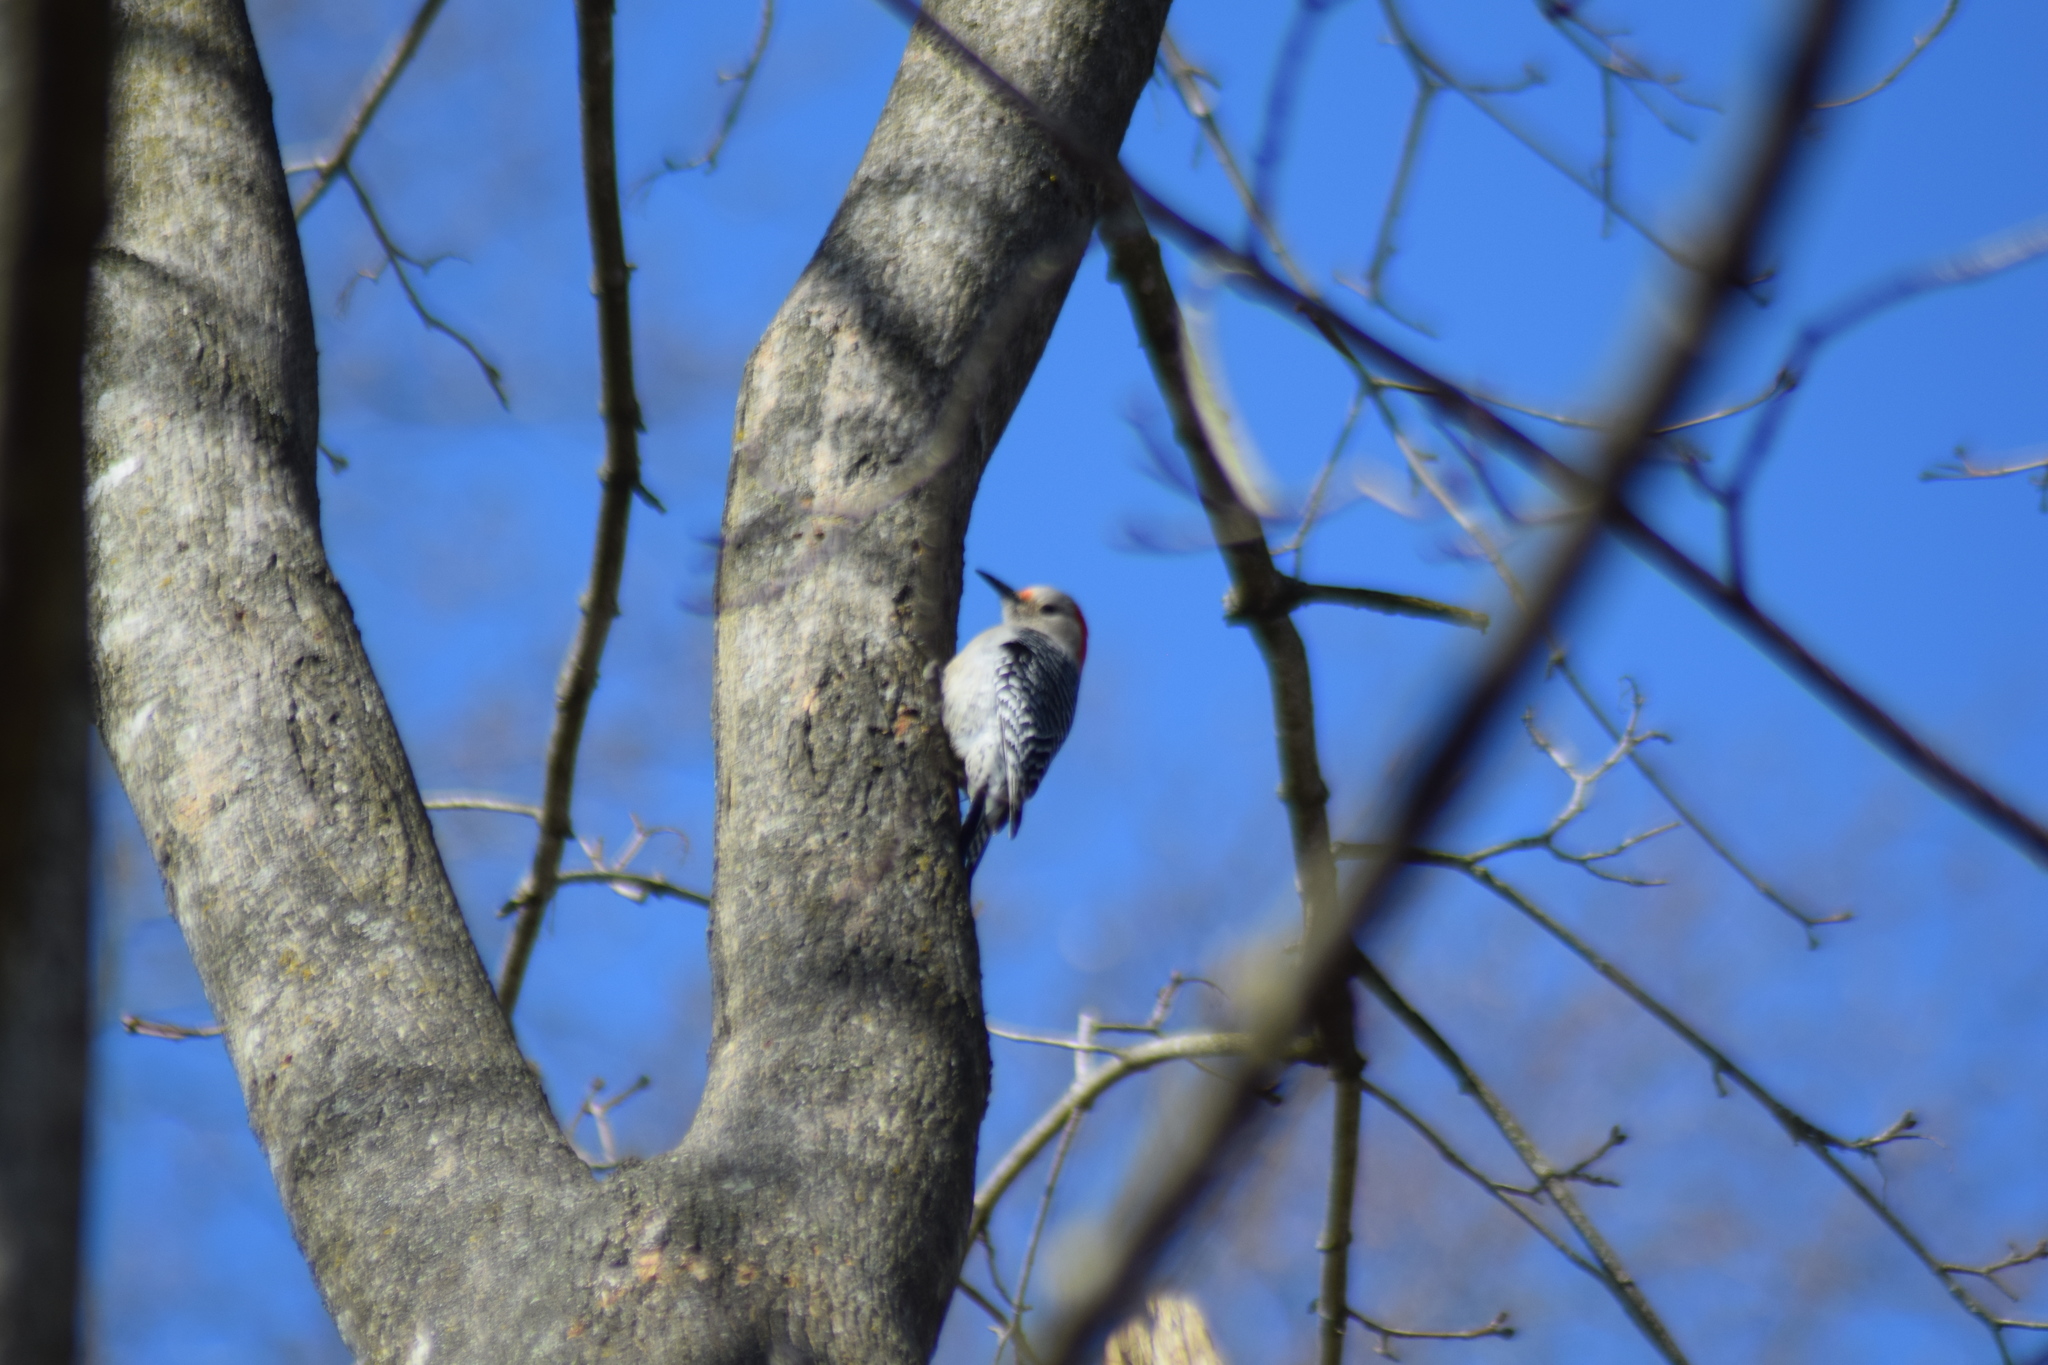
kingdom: Animalia
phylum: Chordata
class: Aves
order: Piciformes
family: Picidae
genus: Melanerpes
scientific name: Melanerpes carolinus
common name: Red-bellied woodpecker
